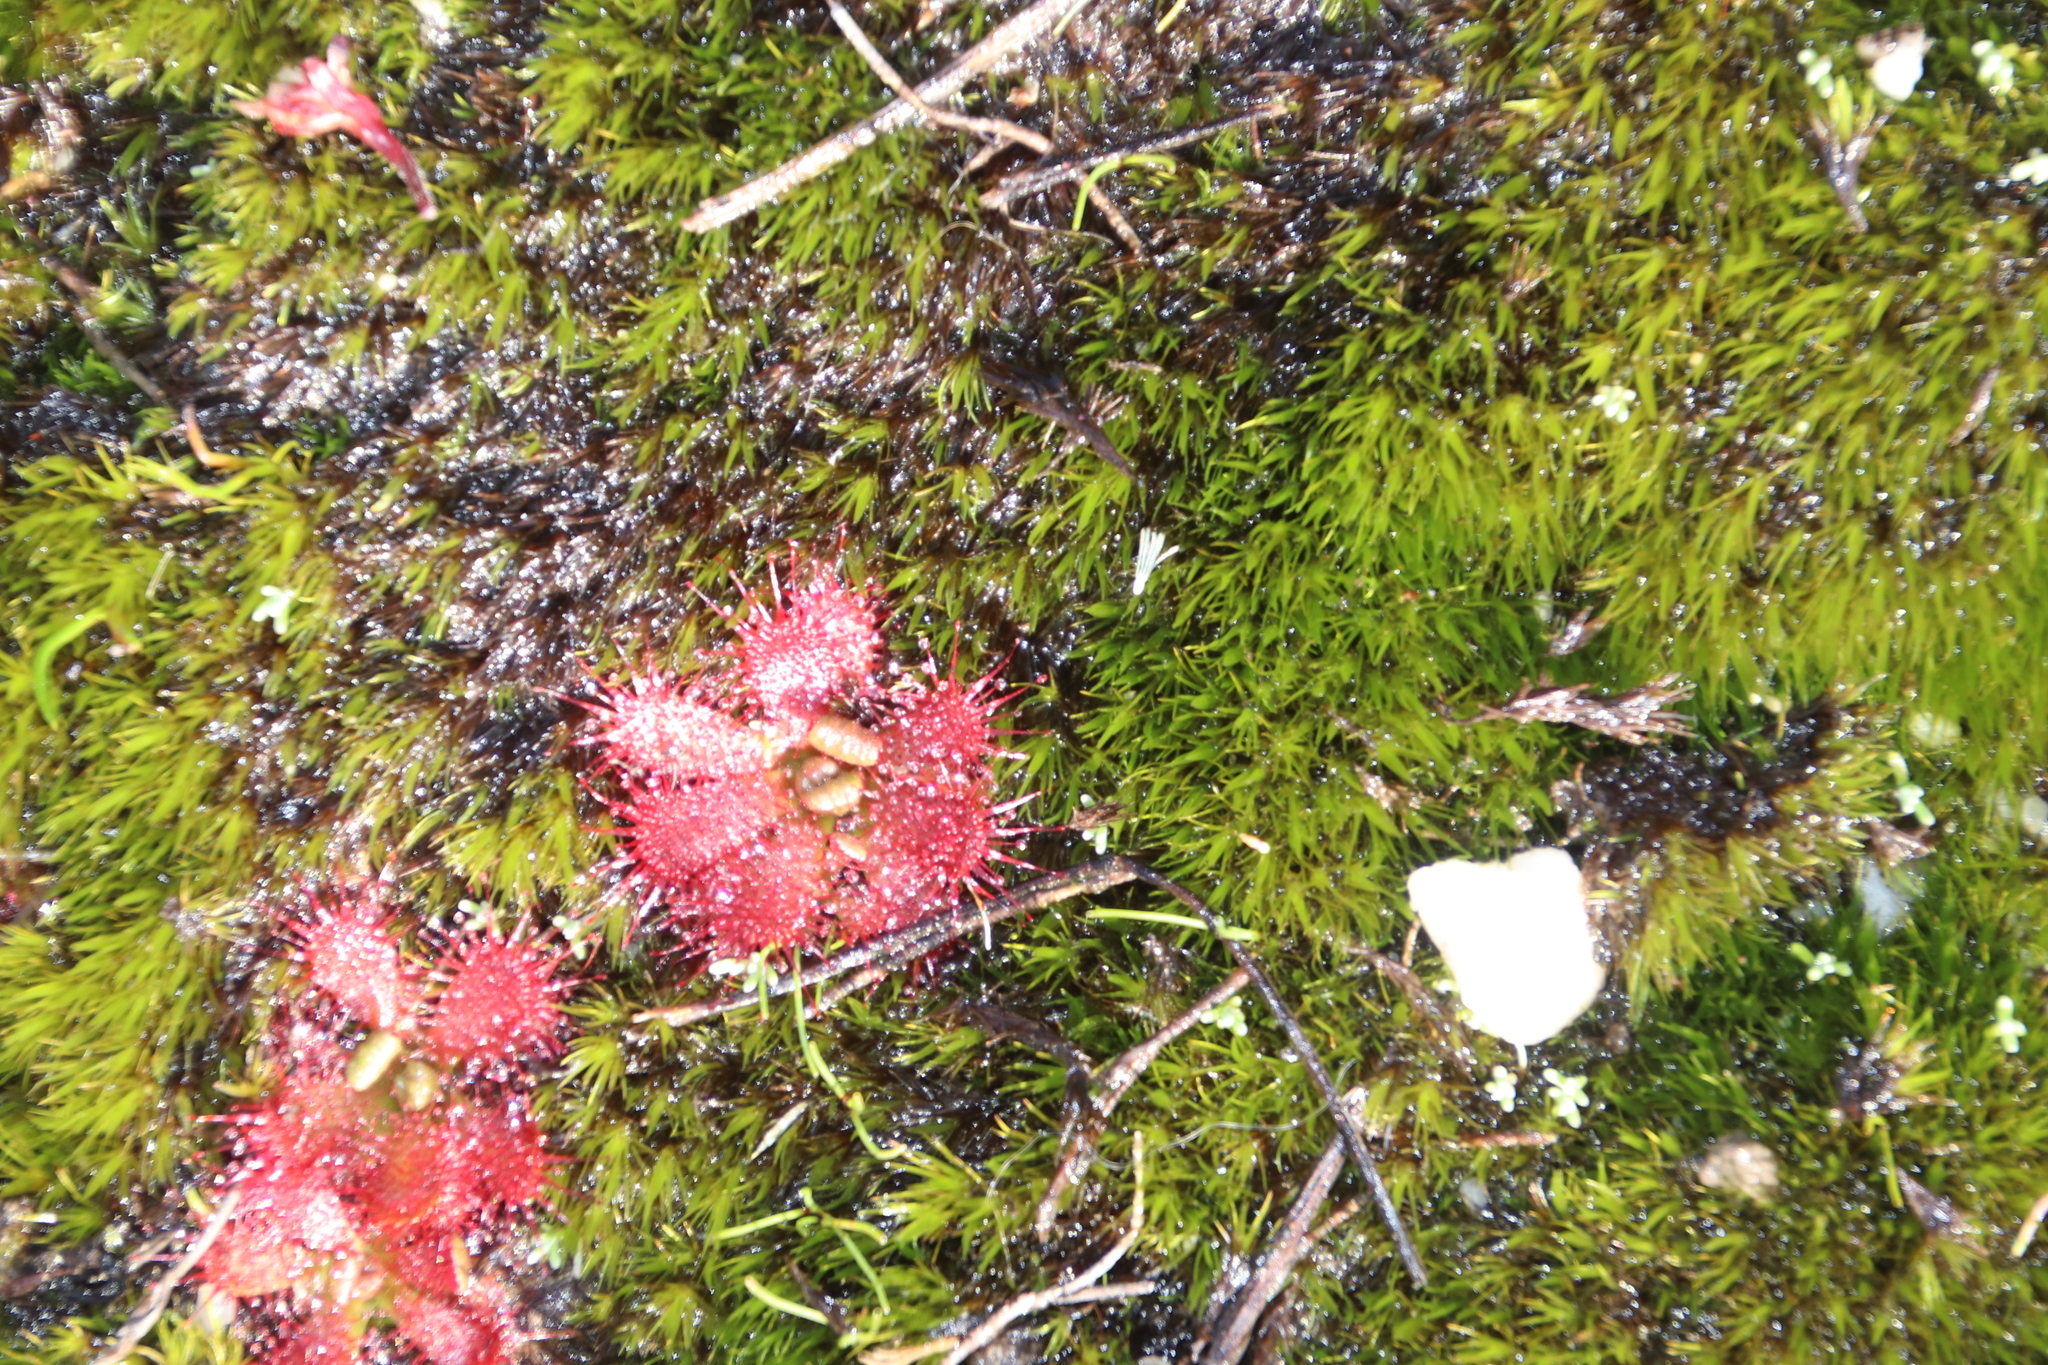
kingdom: Plantae
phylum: Tracheophyta
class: Magnoliopsida
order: Caryophyllales
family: Droseraceae
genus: Drosera
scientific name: Drosera trinervia
